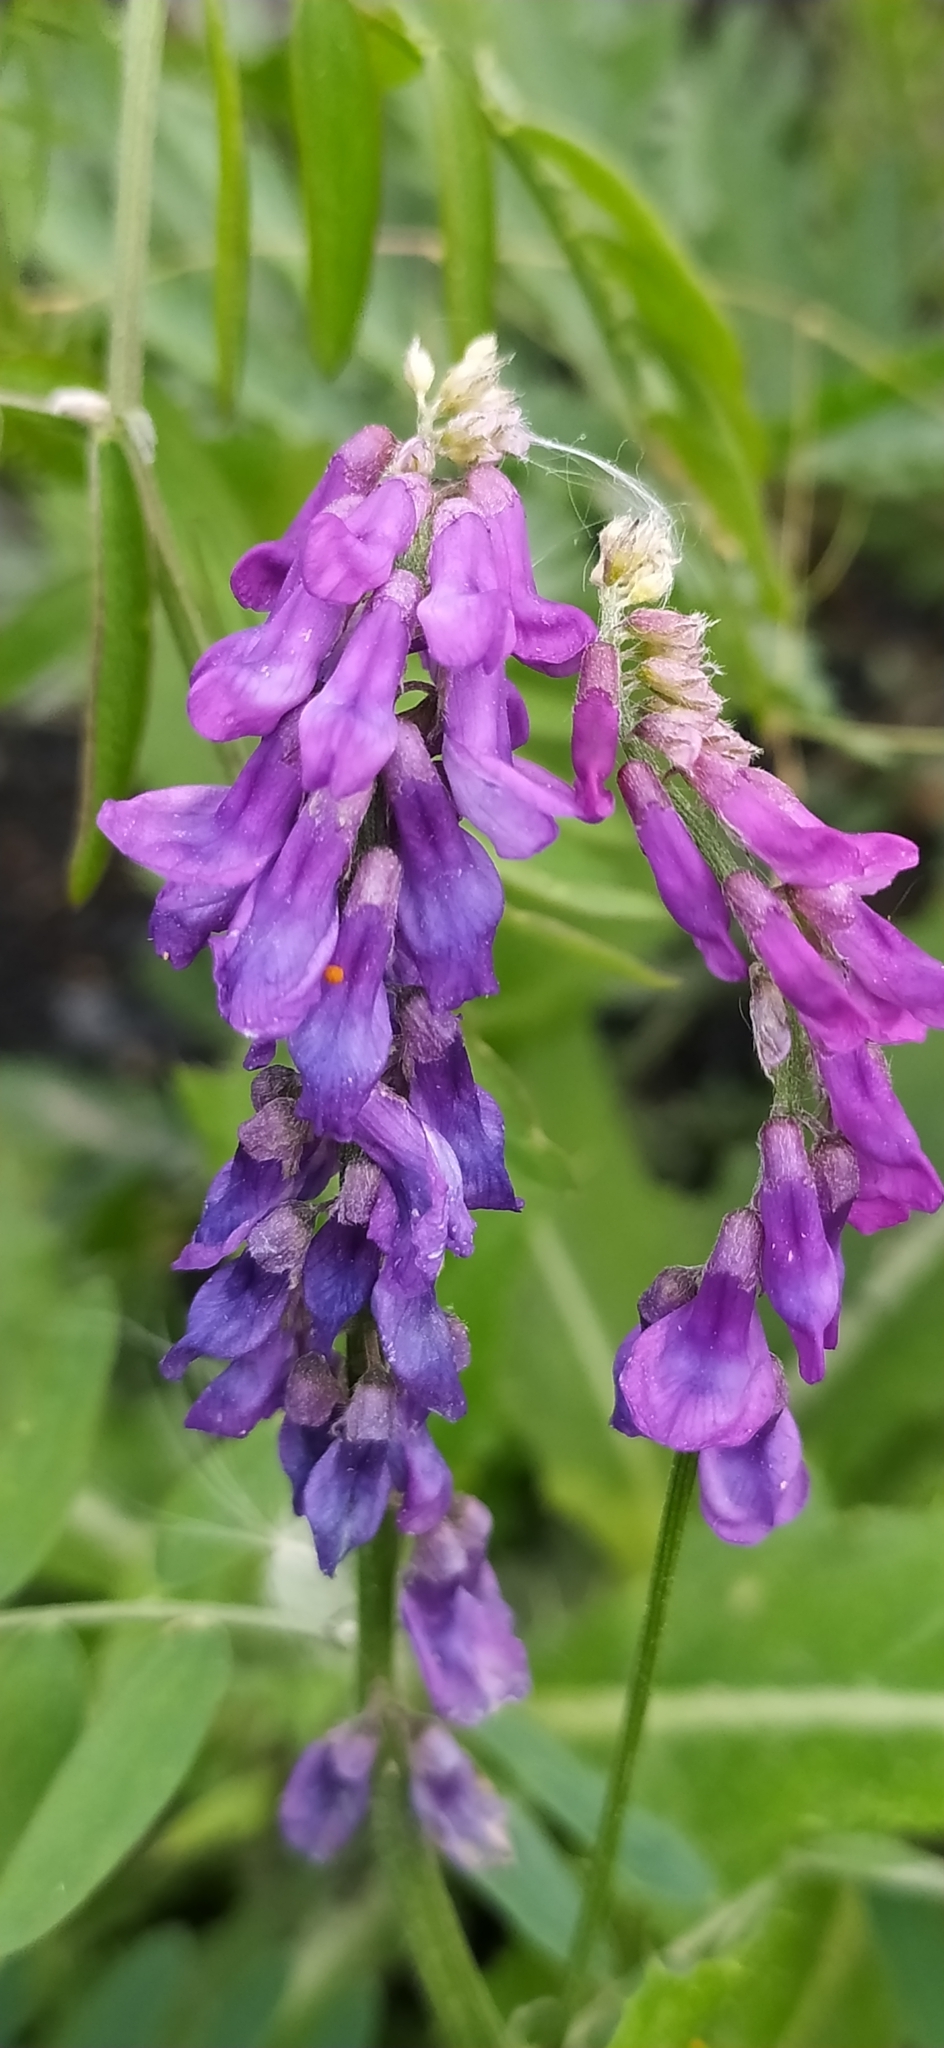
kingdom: Plantae
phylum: Tracheophyta
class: Magnoliopsida
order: Fabales
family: Fabaceae
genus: Vicia
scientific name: Vicia cracca
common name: Bird vetch
